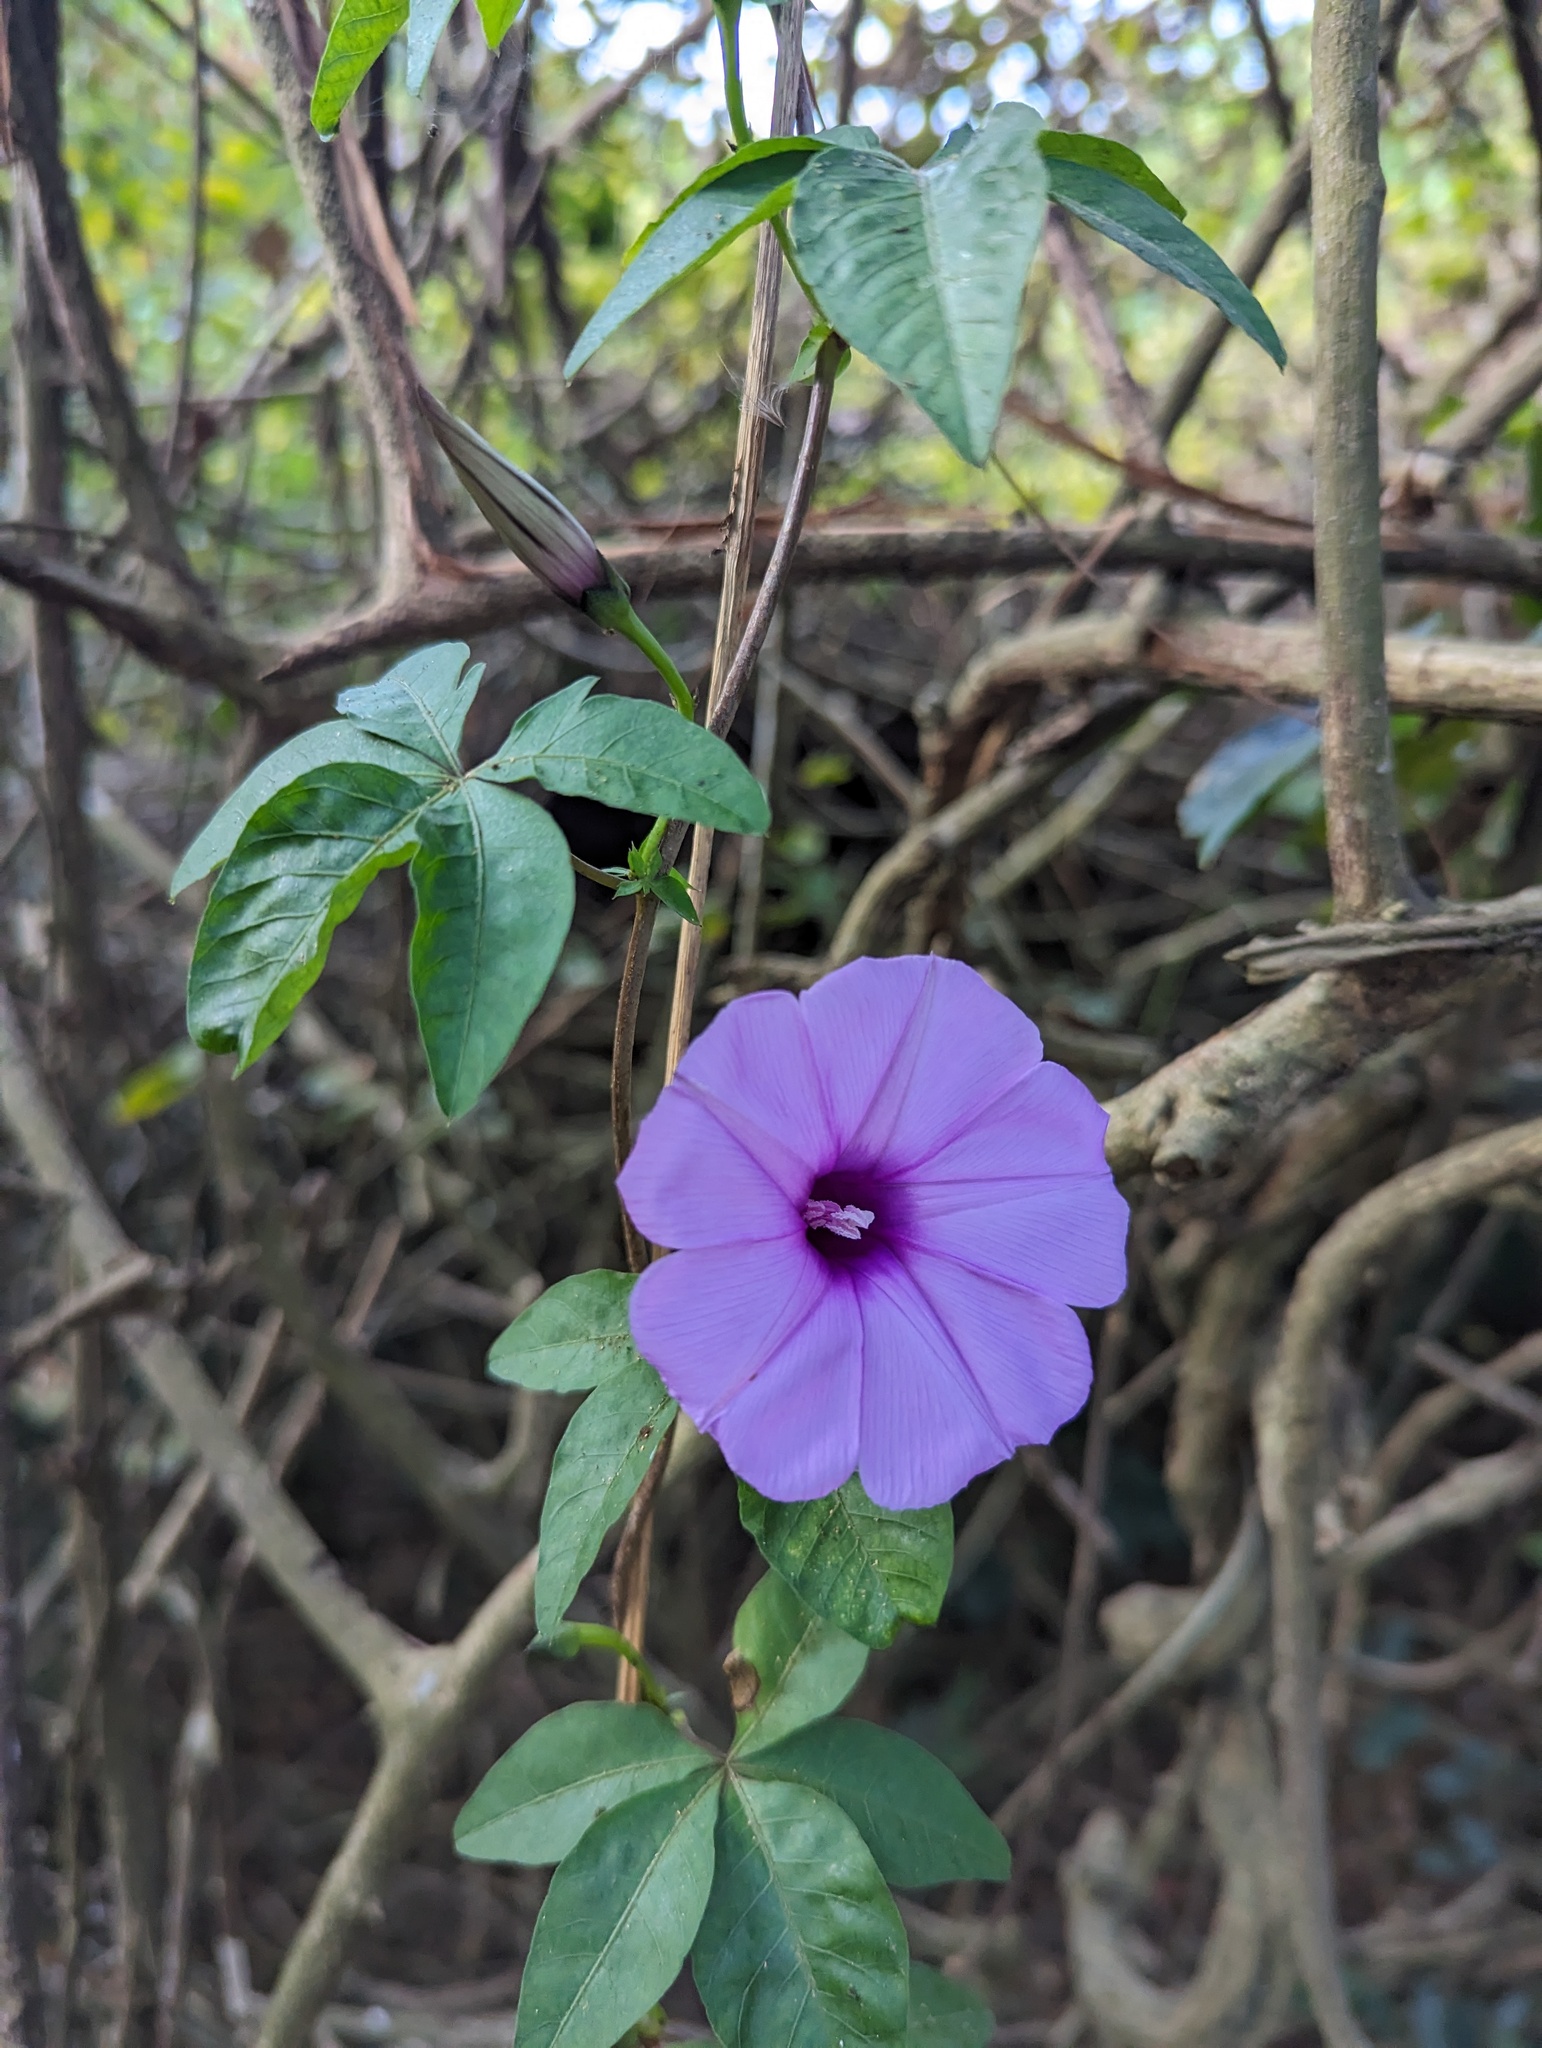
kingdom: Plantae
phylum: Tracheophyta
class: Magnoliopsida
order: Solanales
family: Convolvulaceae
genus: Ipomoea
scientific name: Ipomoea cairica
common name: Mile a minute vine
